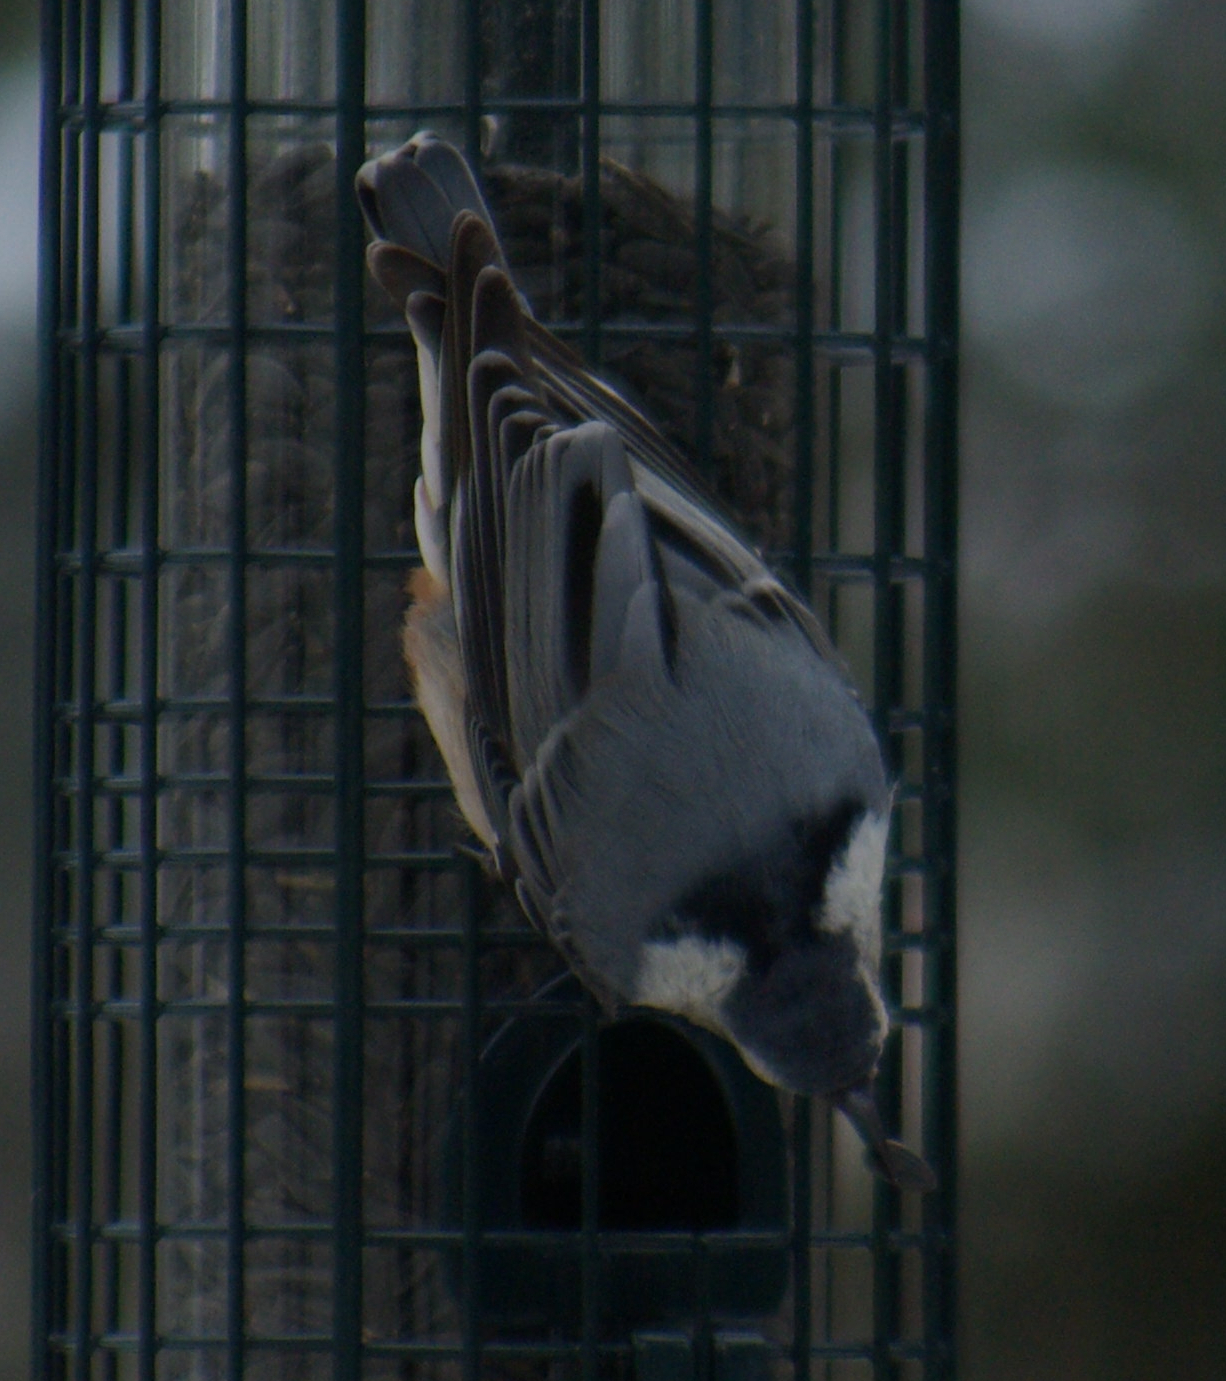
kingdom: Animalia
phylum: Chordata
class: Aves
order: Passeriformes
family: Sittidae
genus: Sitta
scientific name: Sitta carolinensis
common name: White-breasted nuthatch
